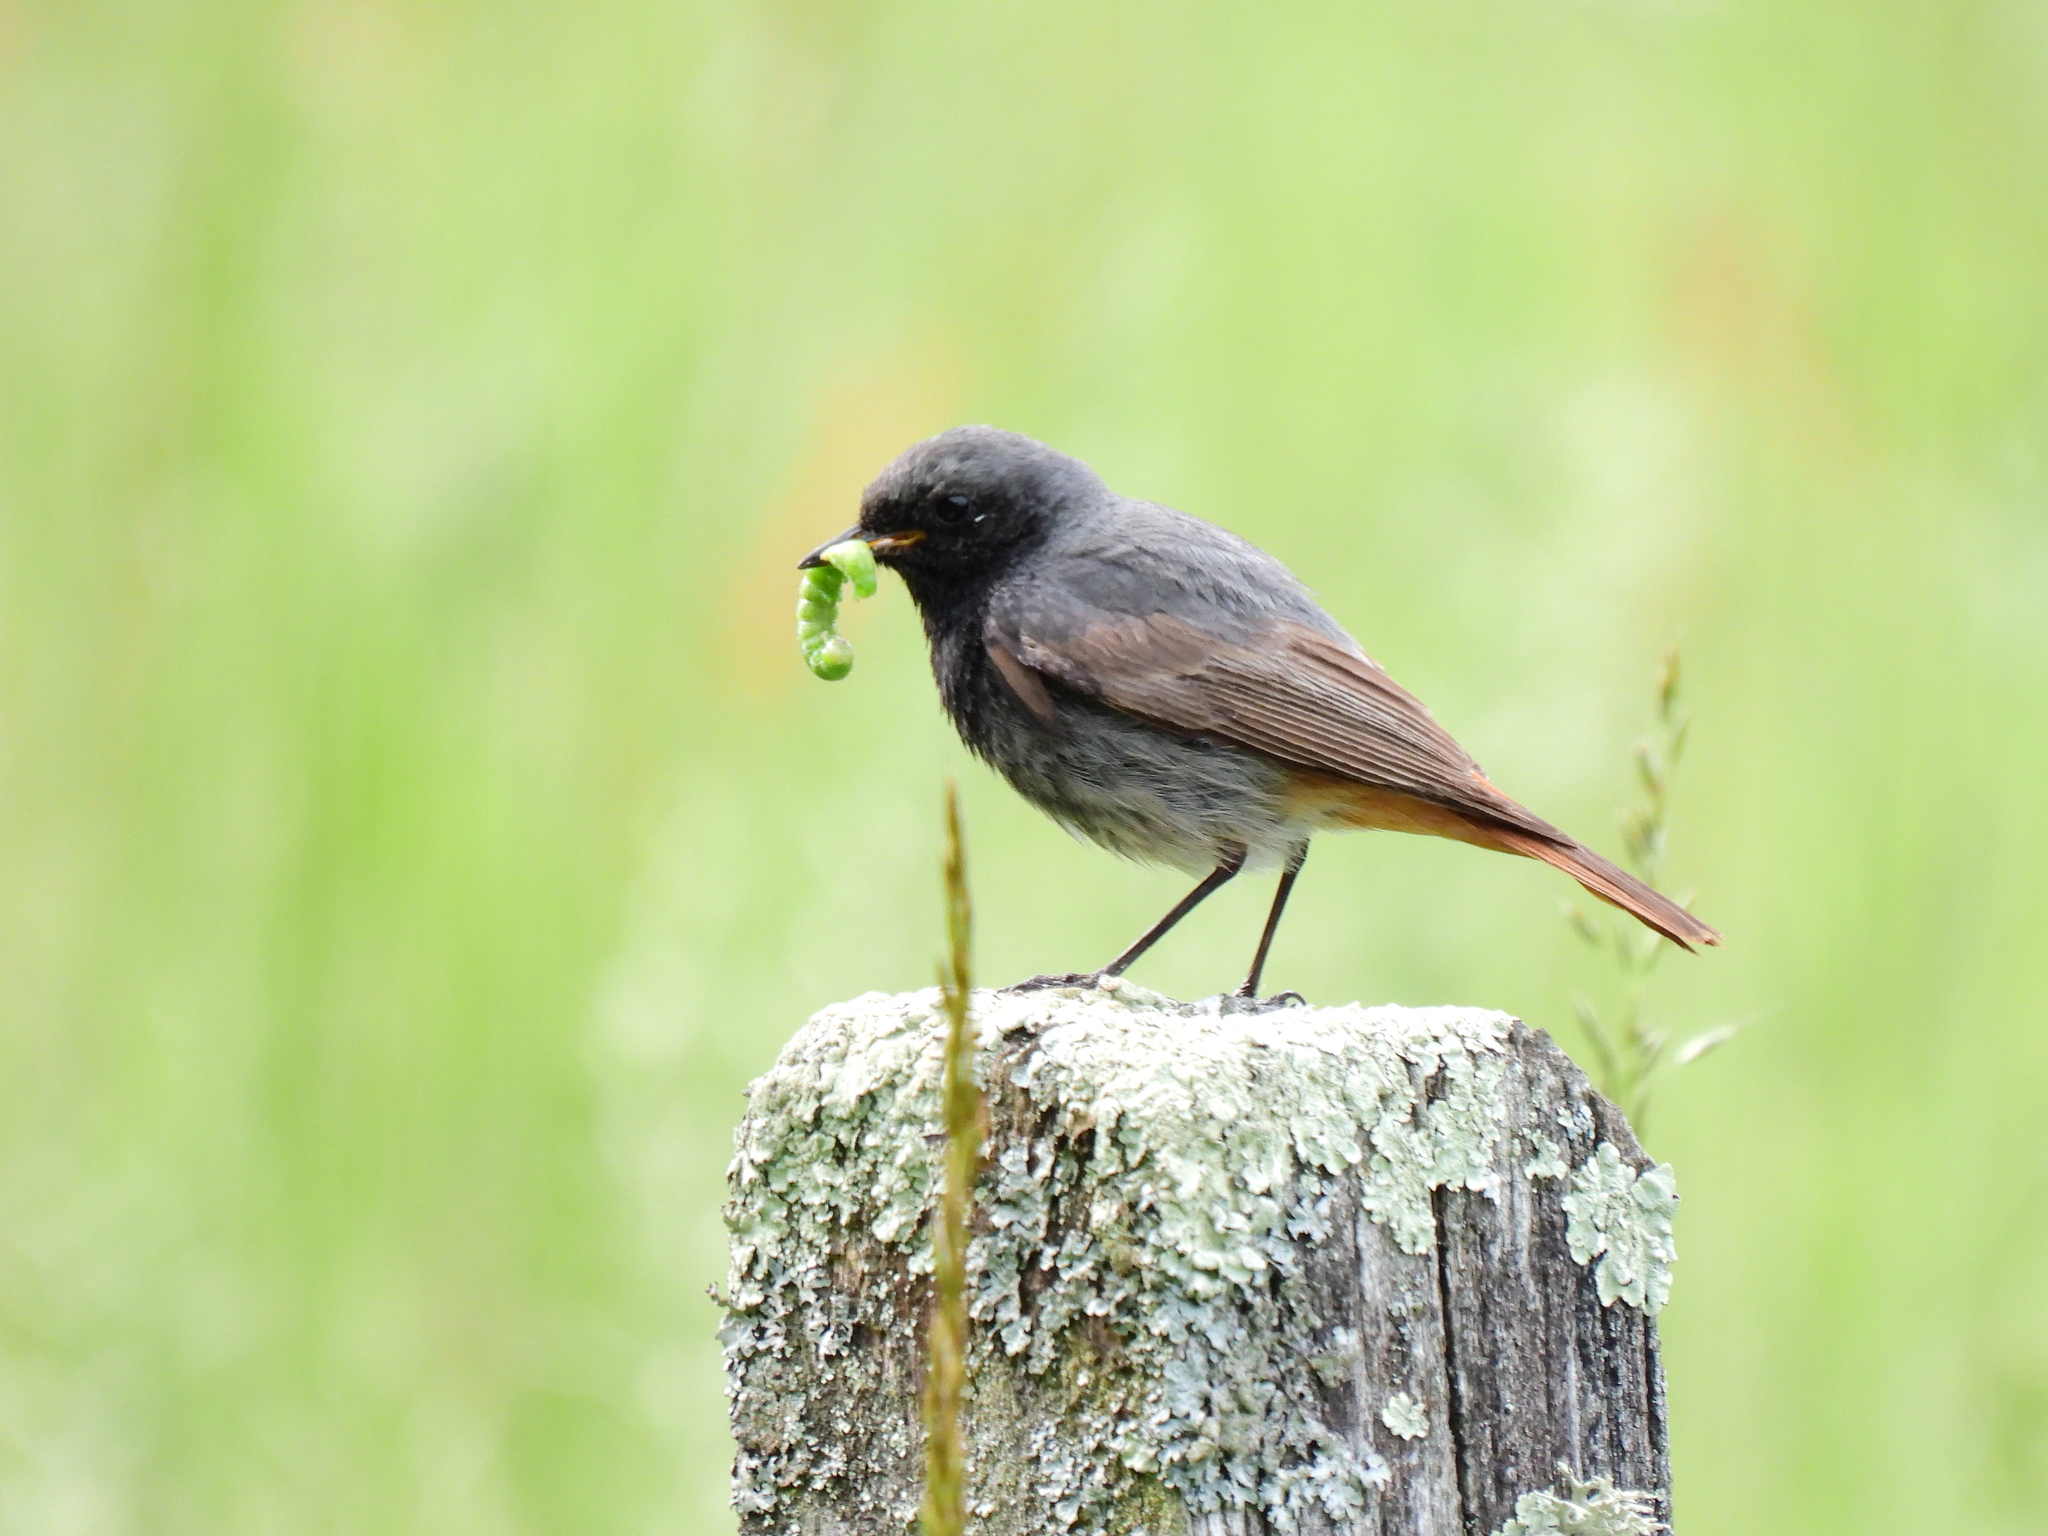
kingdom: Animalia
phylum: Chordata
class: Aves
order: Passeriformes
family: Muscicapidae
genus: Phoenicurus
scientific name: Phoenicurus ochruros
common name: Black redstart
